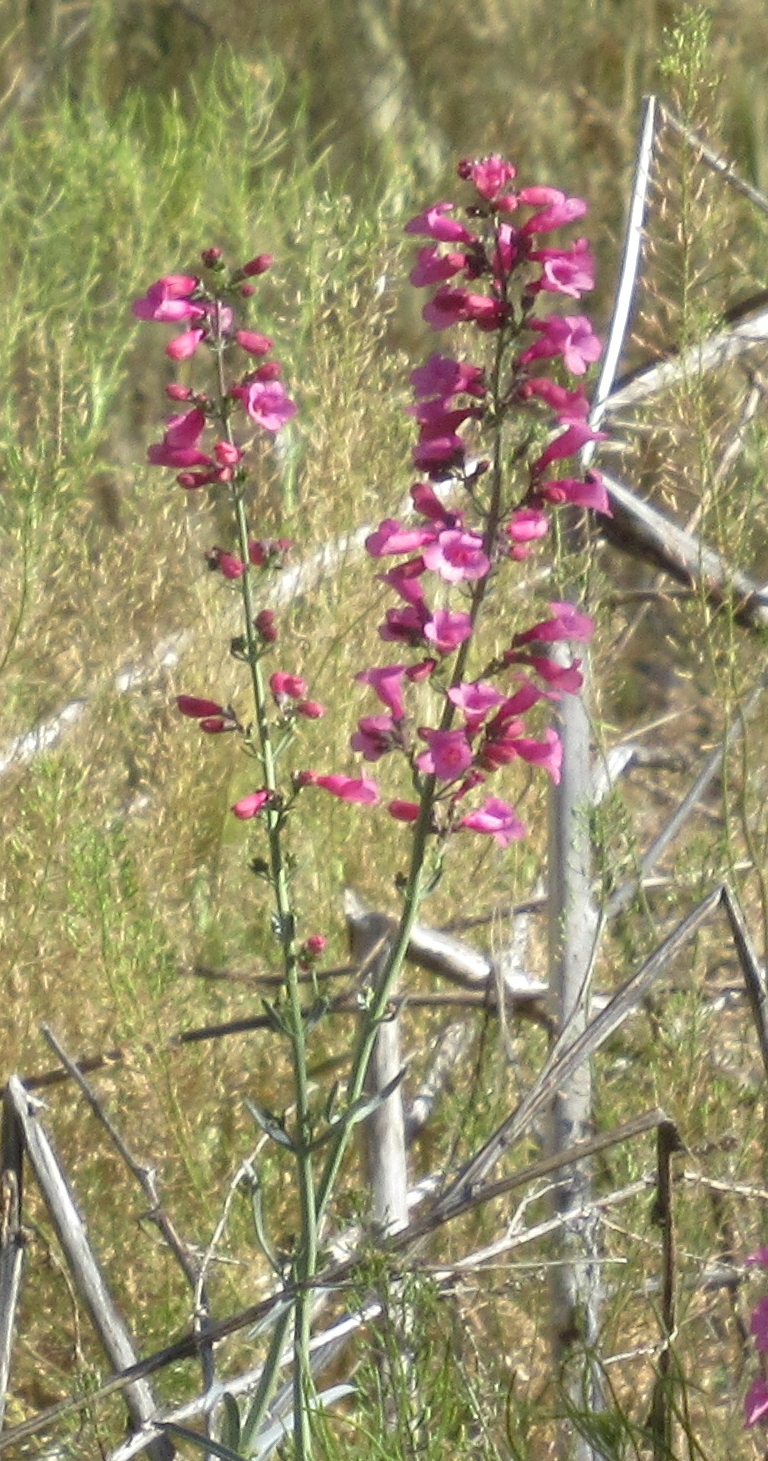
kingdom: Plantae
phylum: Tracheophyta
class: Magnoliopsida
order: Lamiales
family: Plantaginaceae
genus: Penstemon
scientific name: Penstemon parryi
